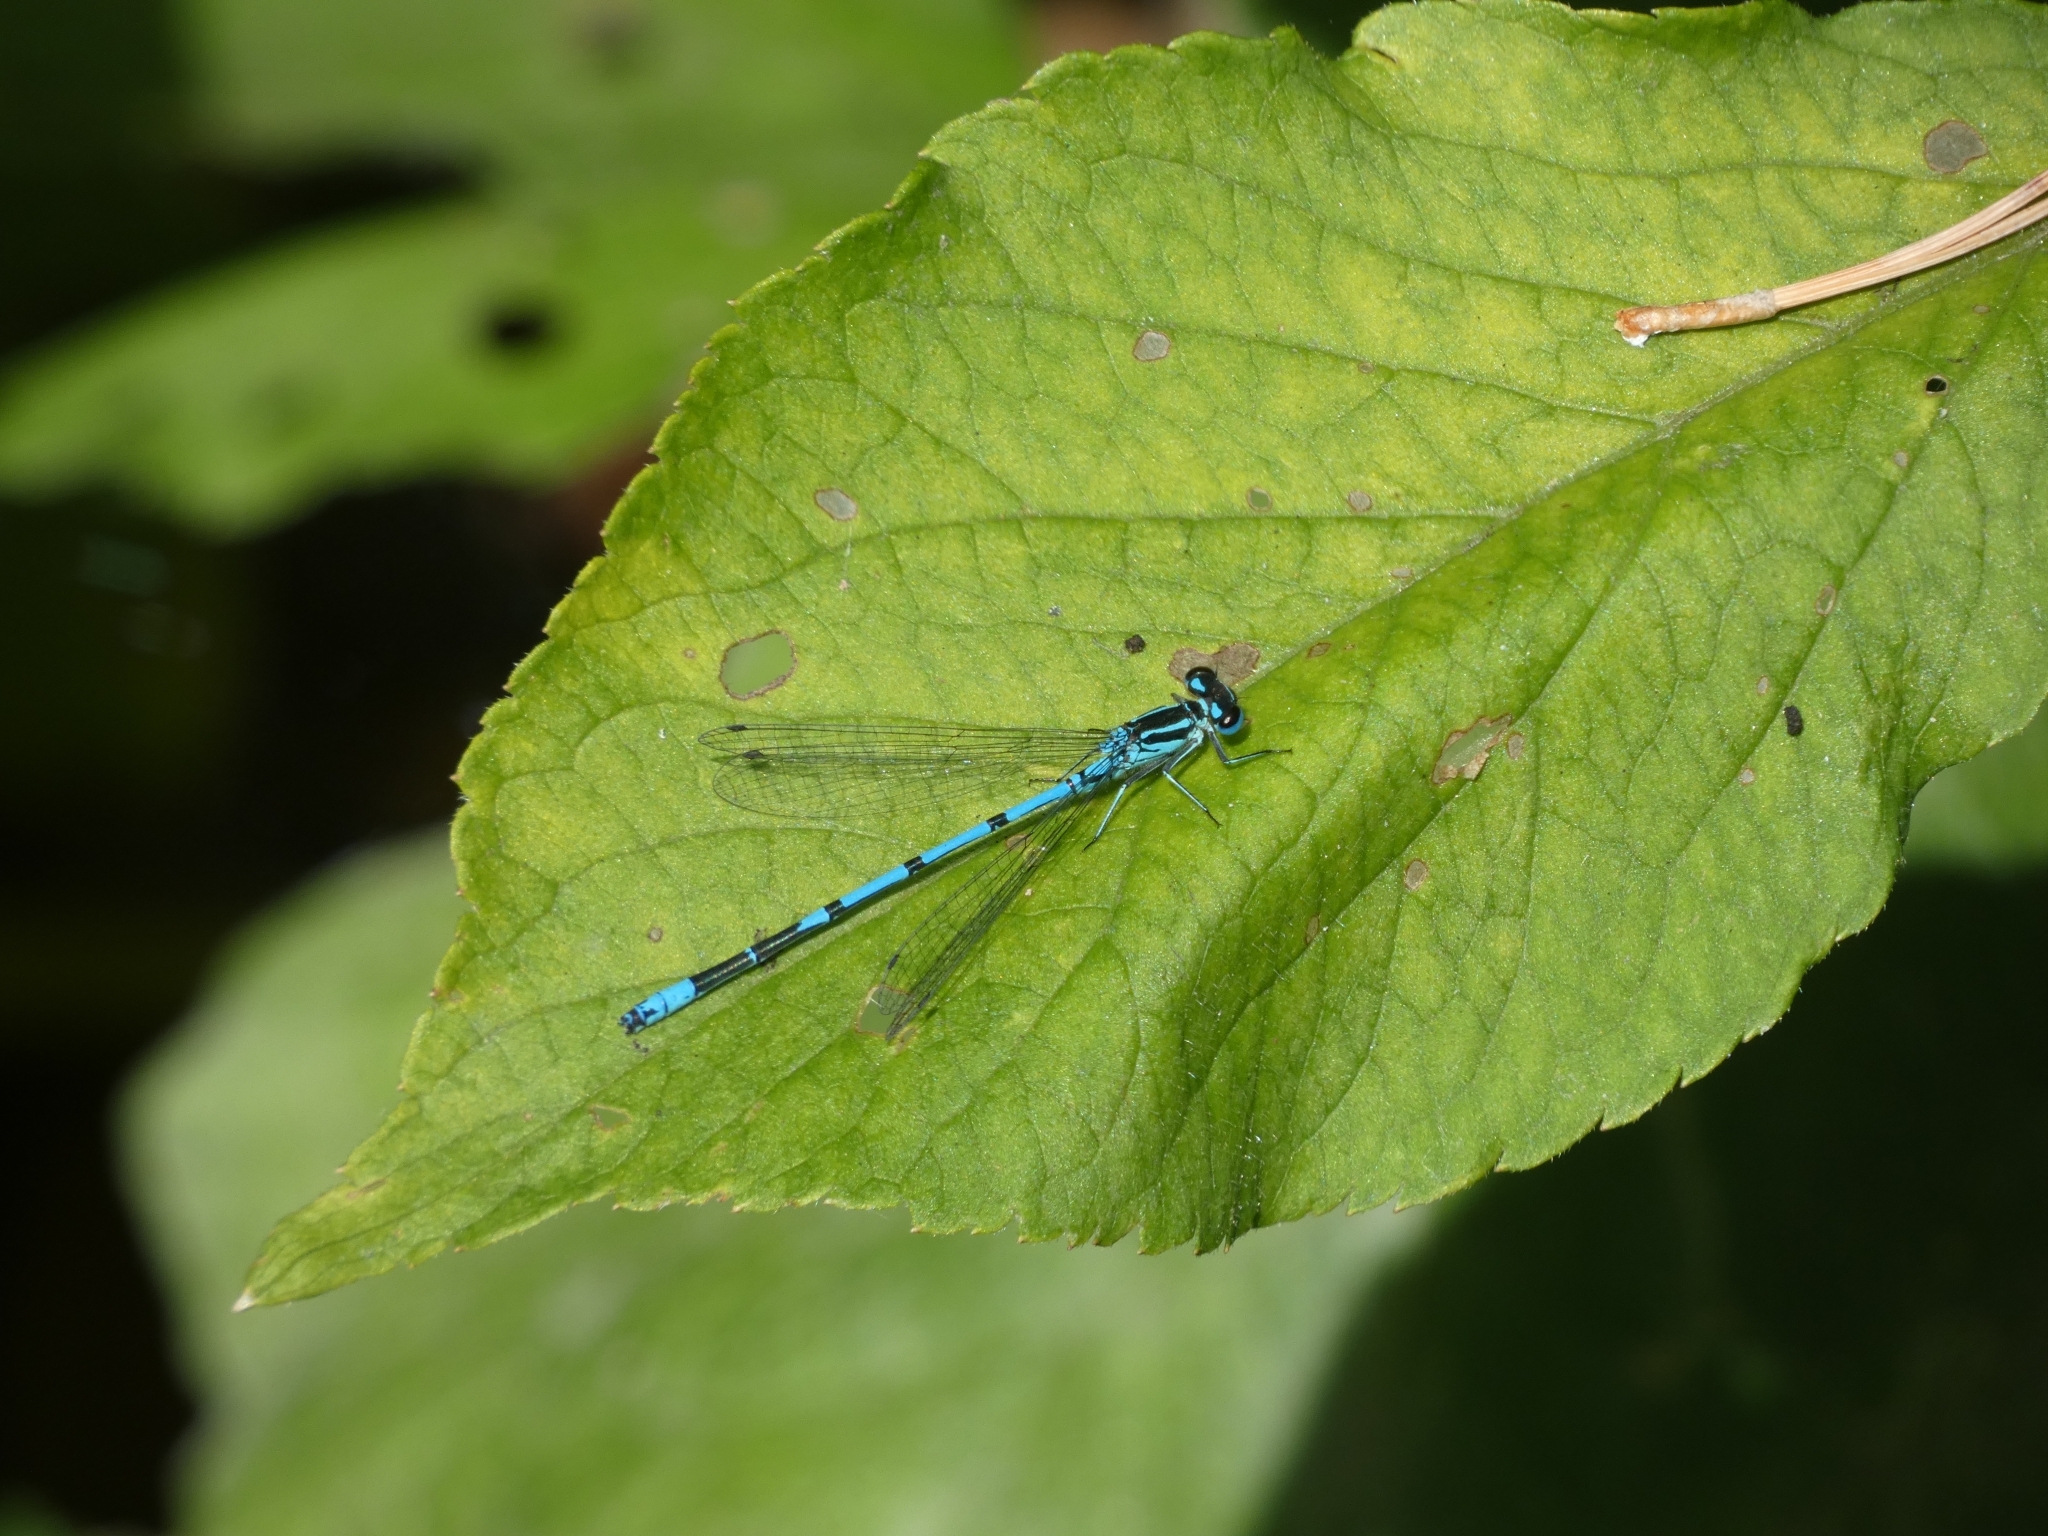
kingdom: Animalia
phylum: Arthropoda
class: Insecta
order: Odonata
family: Coenagrionidae
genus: Coenagrion
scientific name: Coenagrion puella
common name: Azure damselfly
